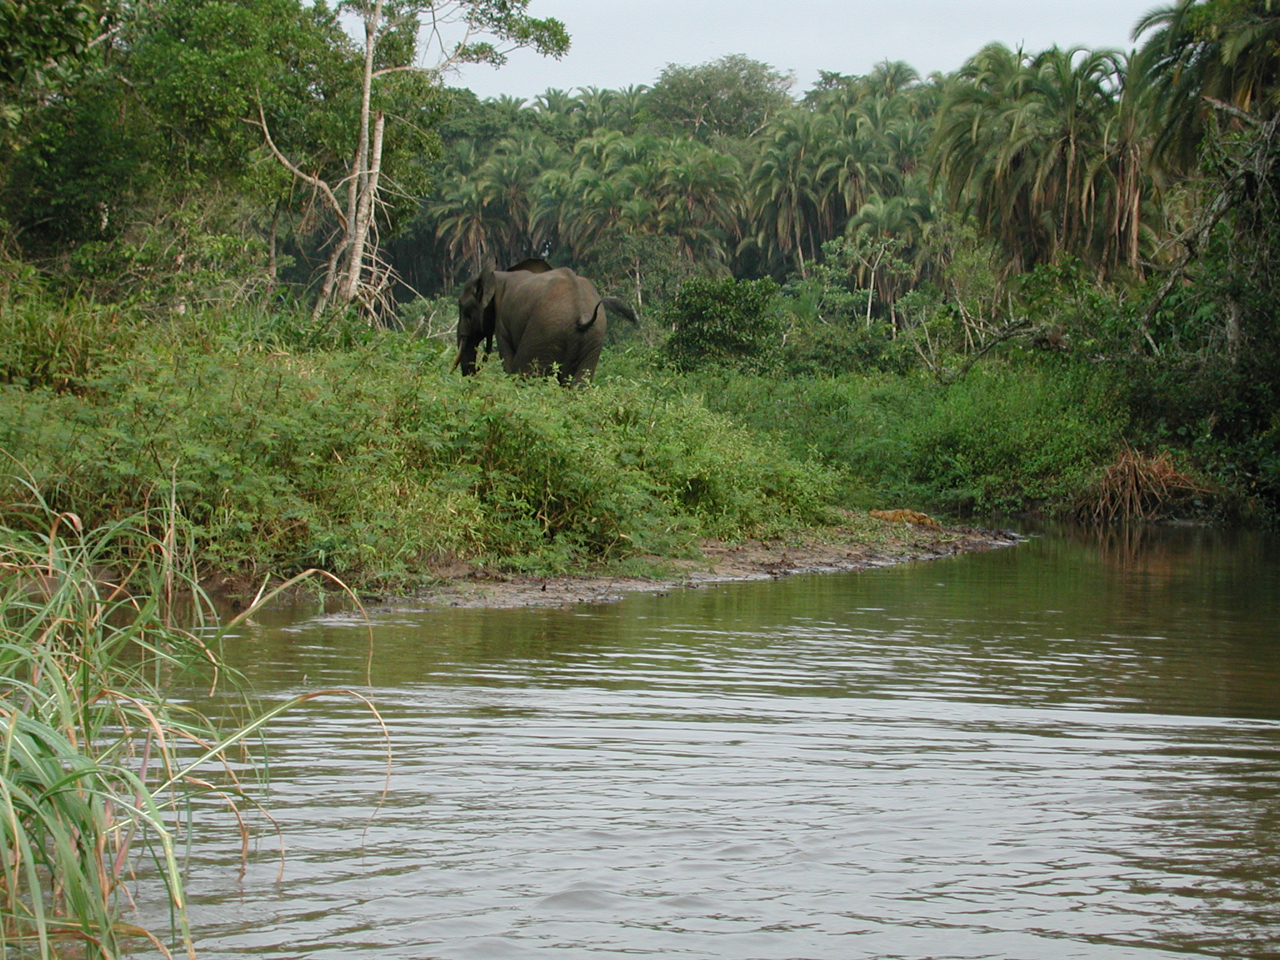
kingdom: Animalia
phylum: Chordata
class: Mammalia
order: Proboscidea
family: Elephantidae
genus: Loxodonta
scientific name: Loxodonta cyclotis
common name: African forest elephant
